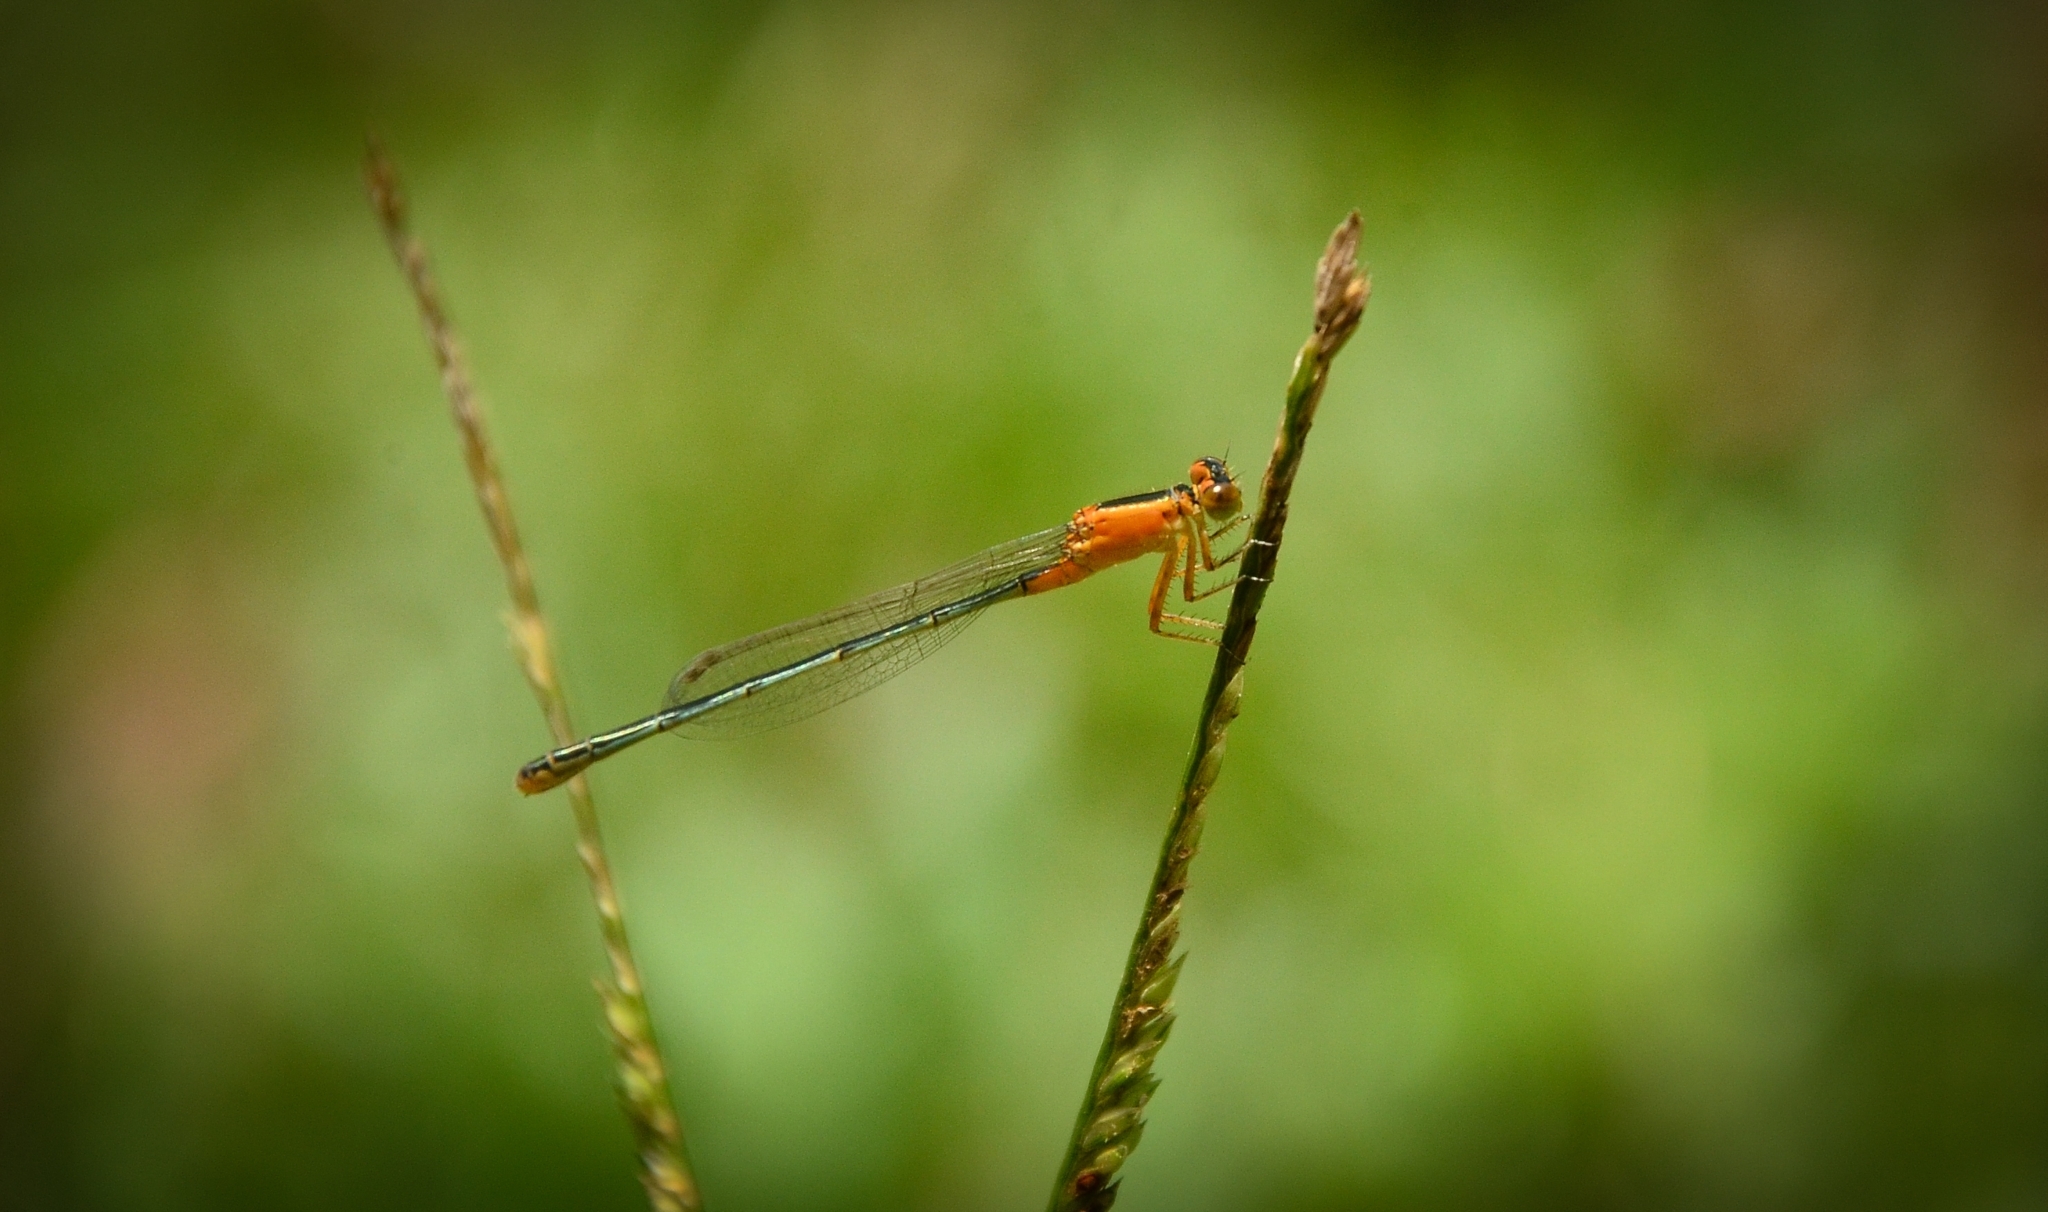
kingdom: Animalia
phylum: Arthropoda
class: Insecta
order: Odonata
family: Coenagrionidae
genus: Ischnura
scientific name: Ischnura senegalensis
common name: Tropical bluetail
